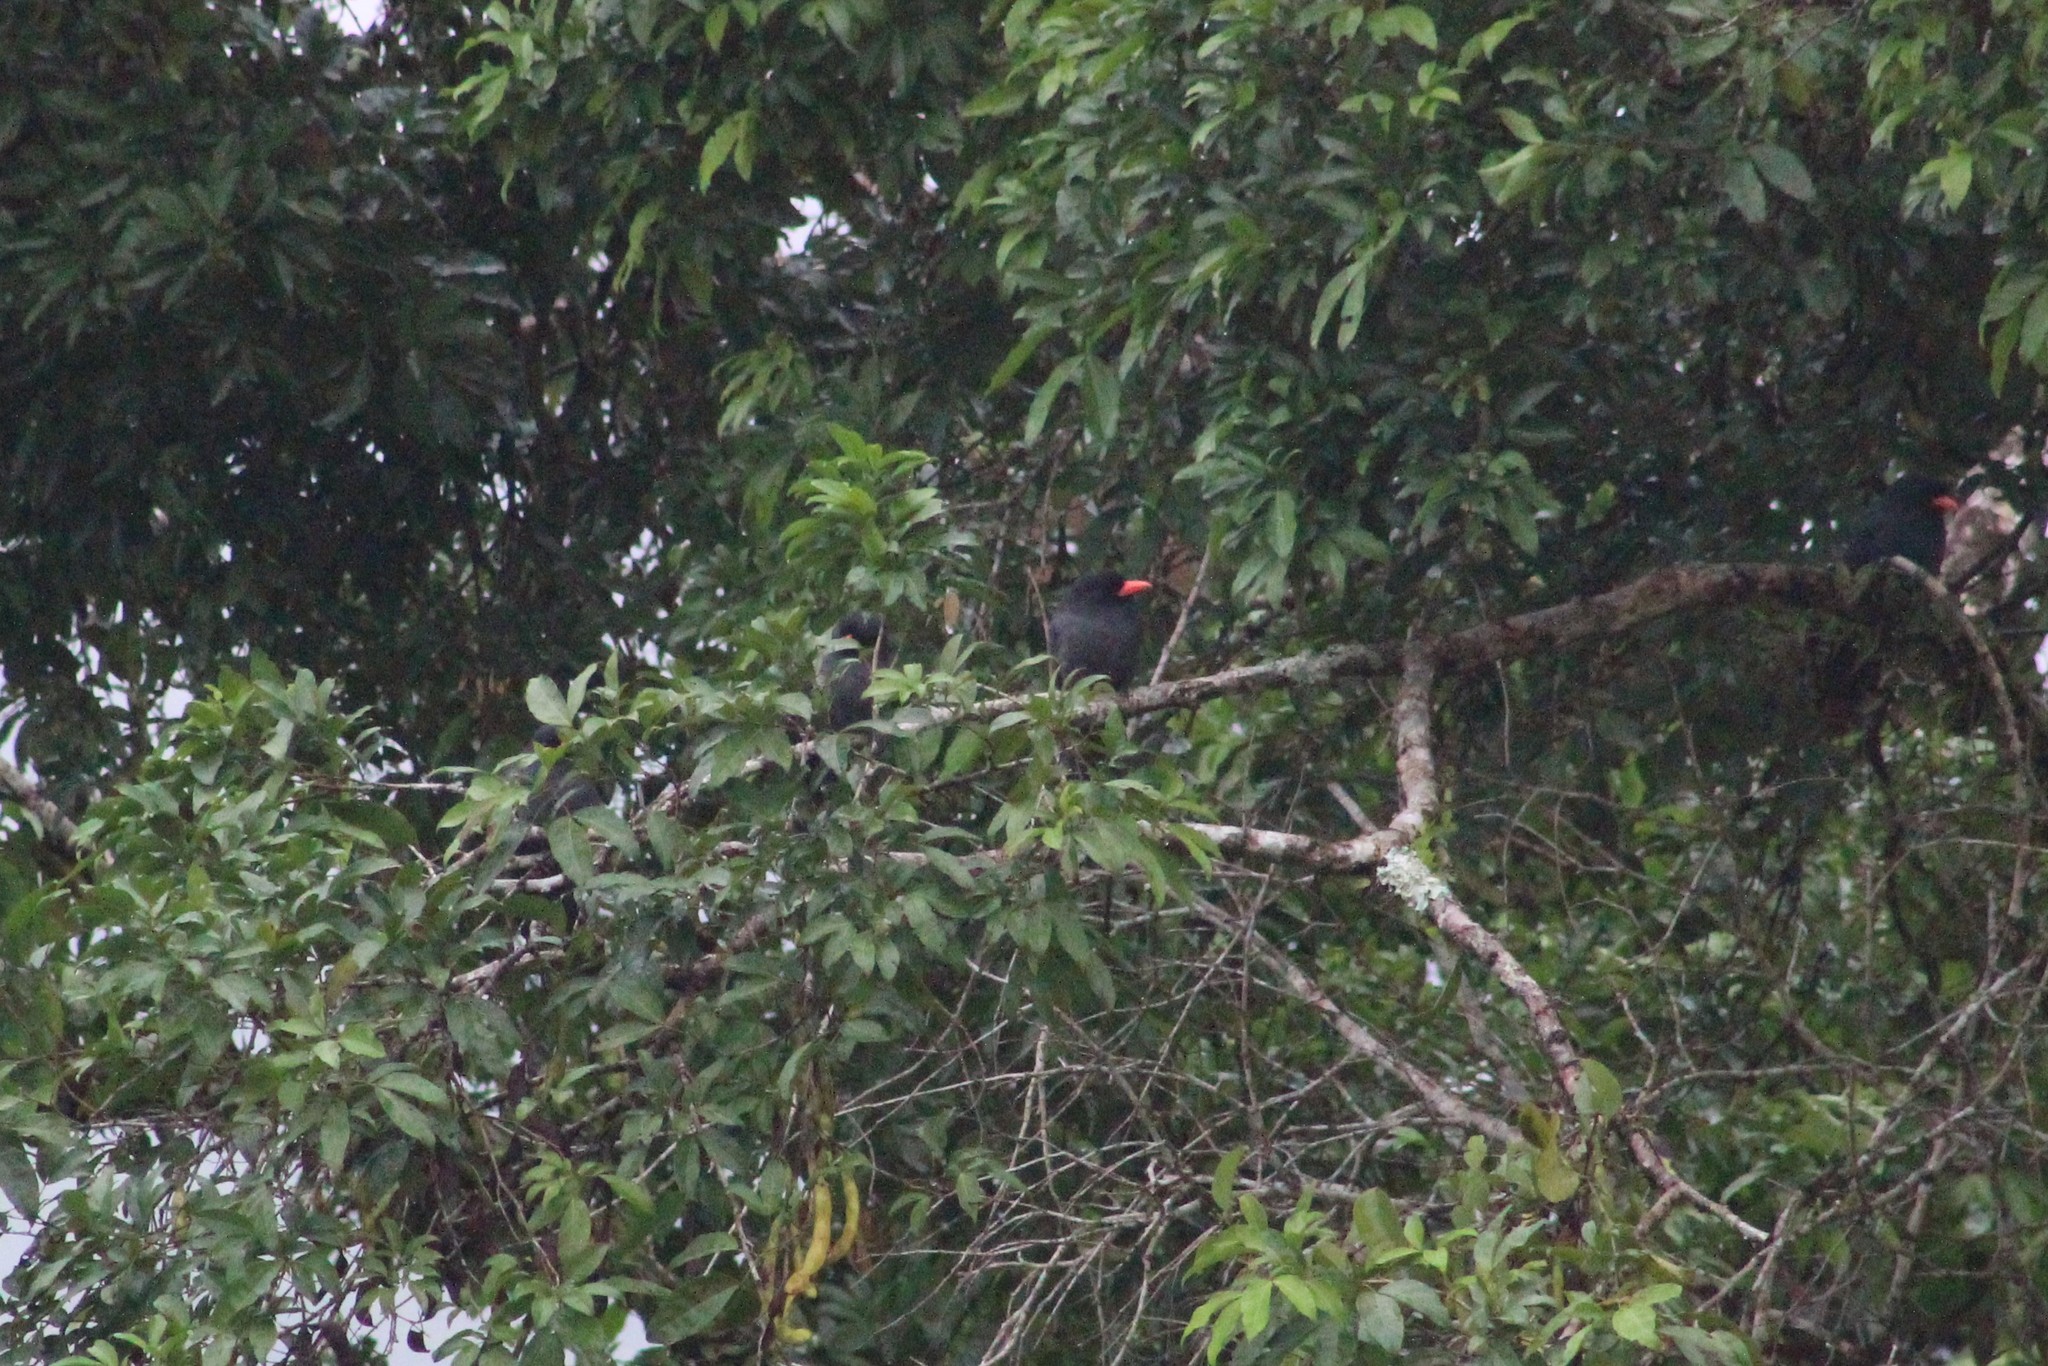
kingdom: Animalia
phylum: Chordata
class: Aves
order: Piciformes
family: Bucconidae
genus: Monasa
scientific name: Monasa nigrifrons
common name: Black-fronted nunbird
